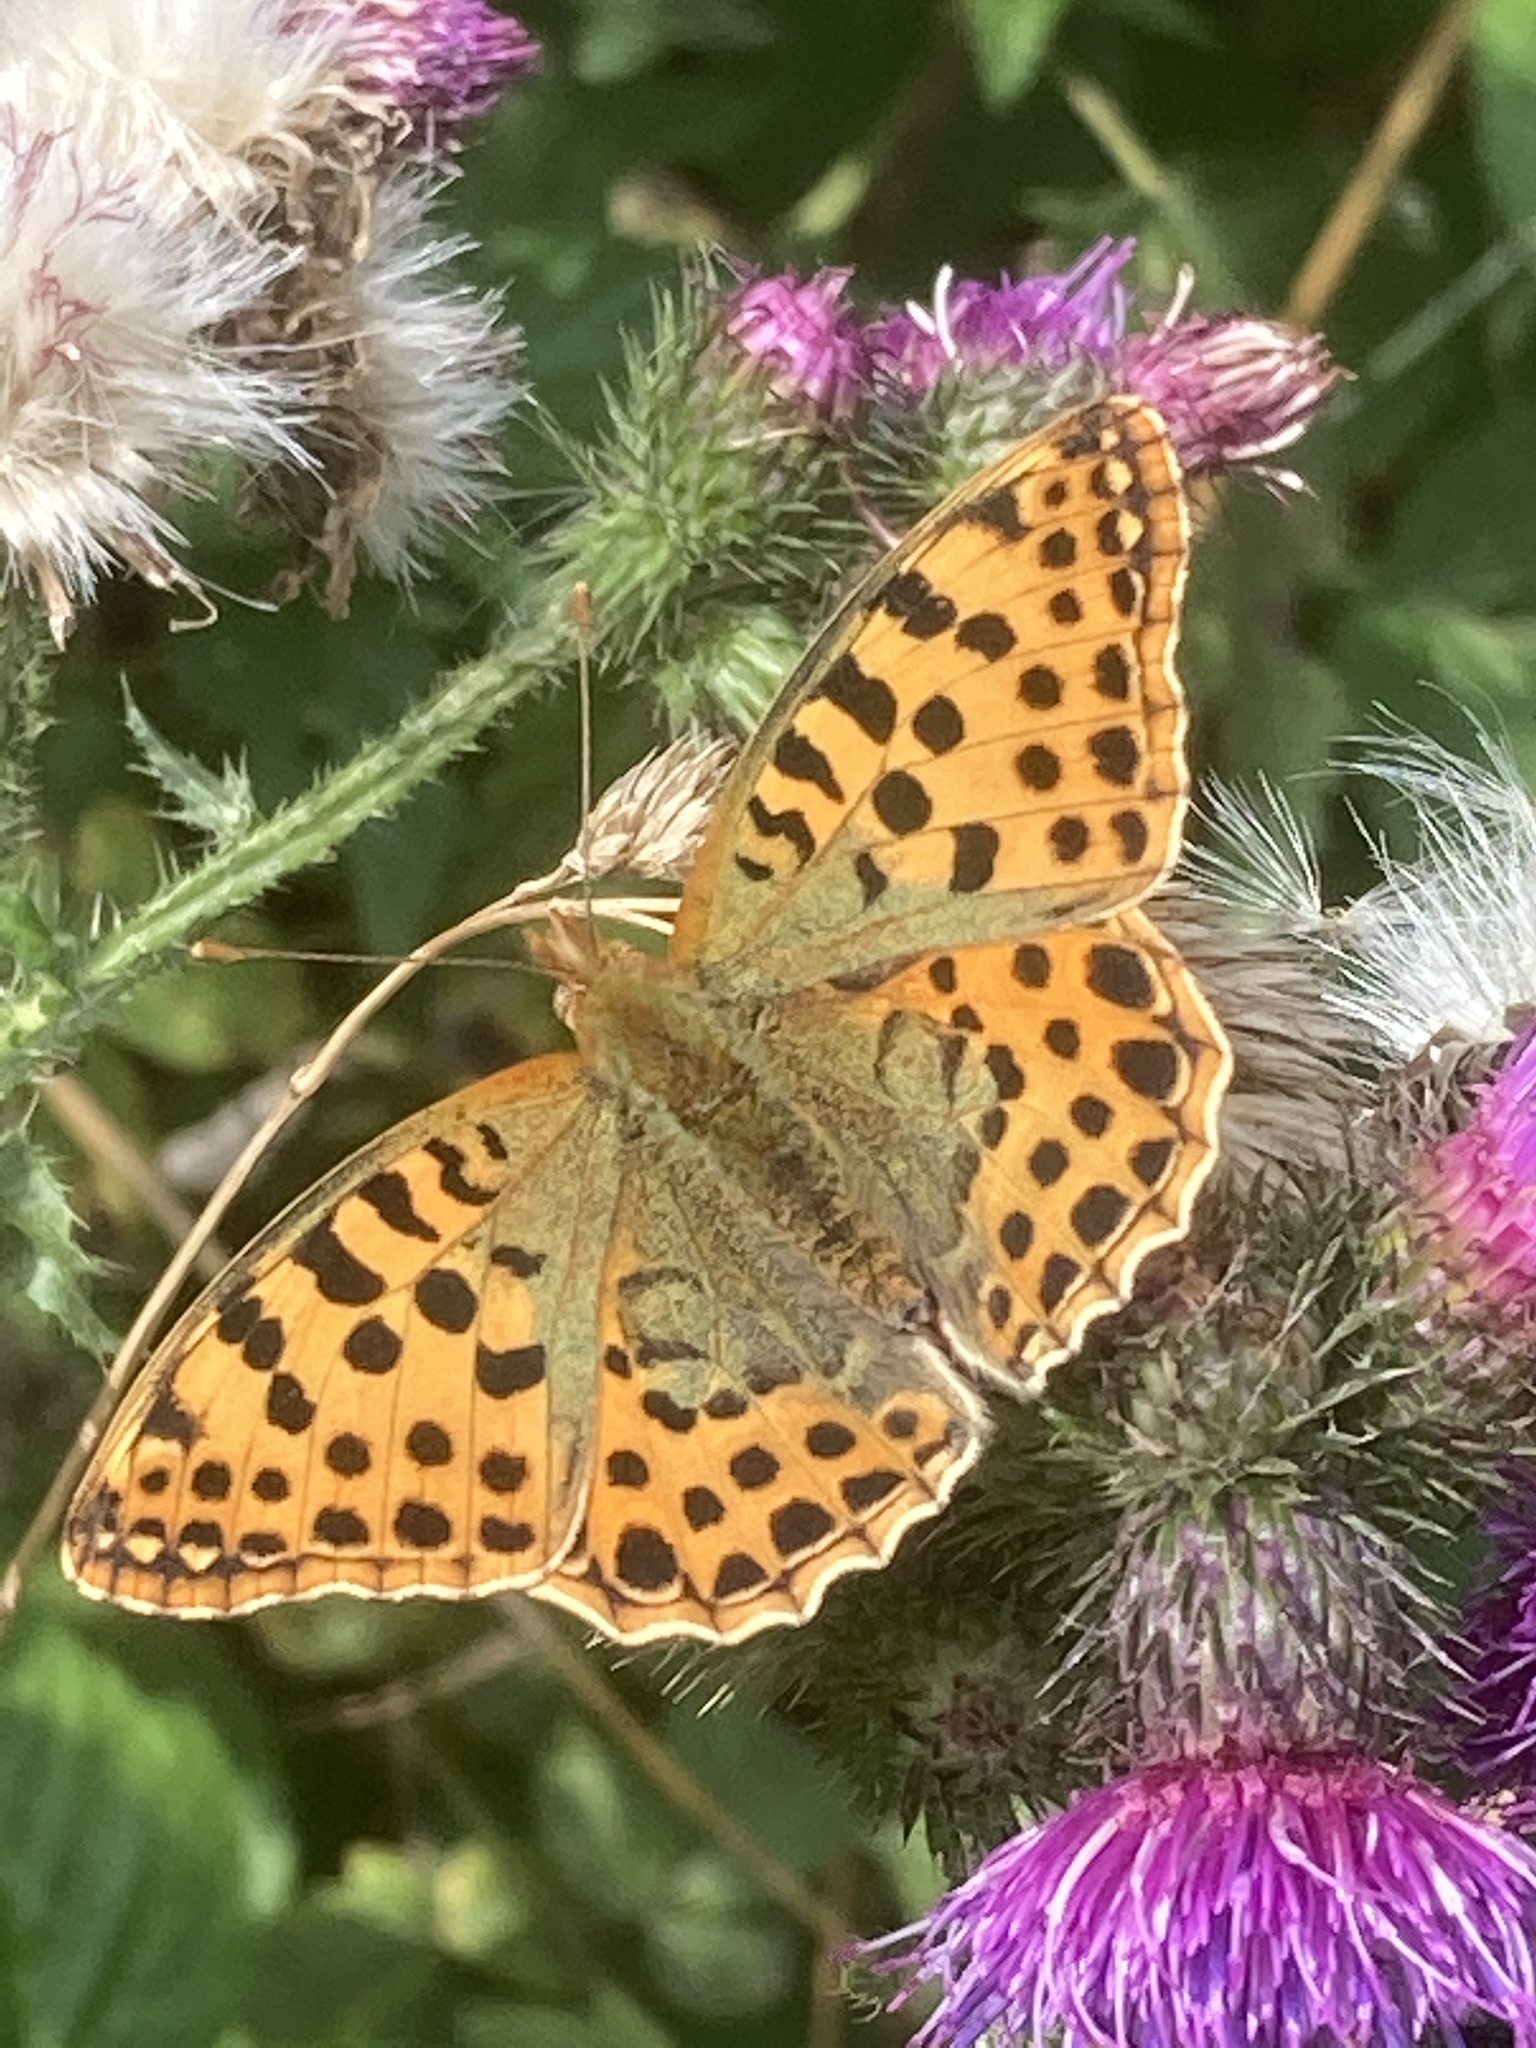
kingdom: Animalia
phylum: Arthropoda
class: Insecta
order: Lepidoptera
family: Nymphalidae
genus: Issoria
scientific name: Issoria lathonia
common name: Queen of spain fritillary
